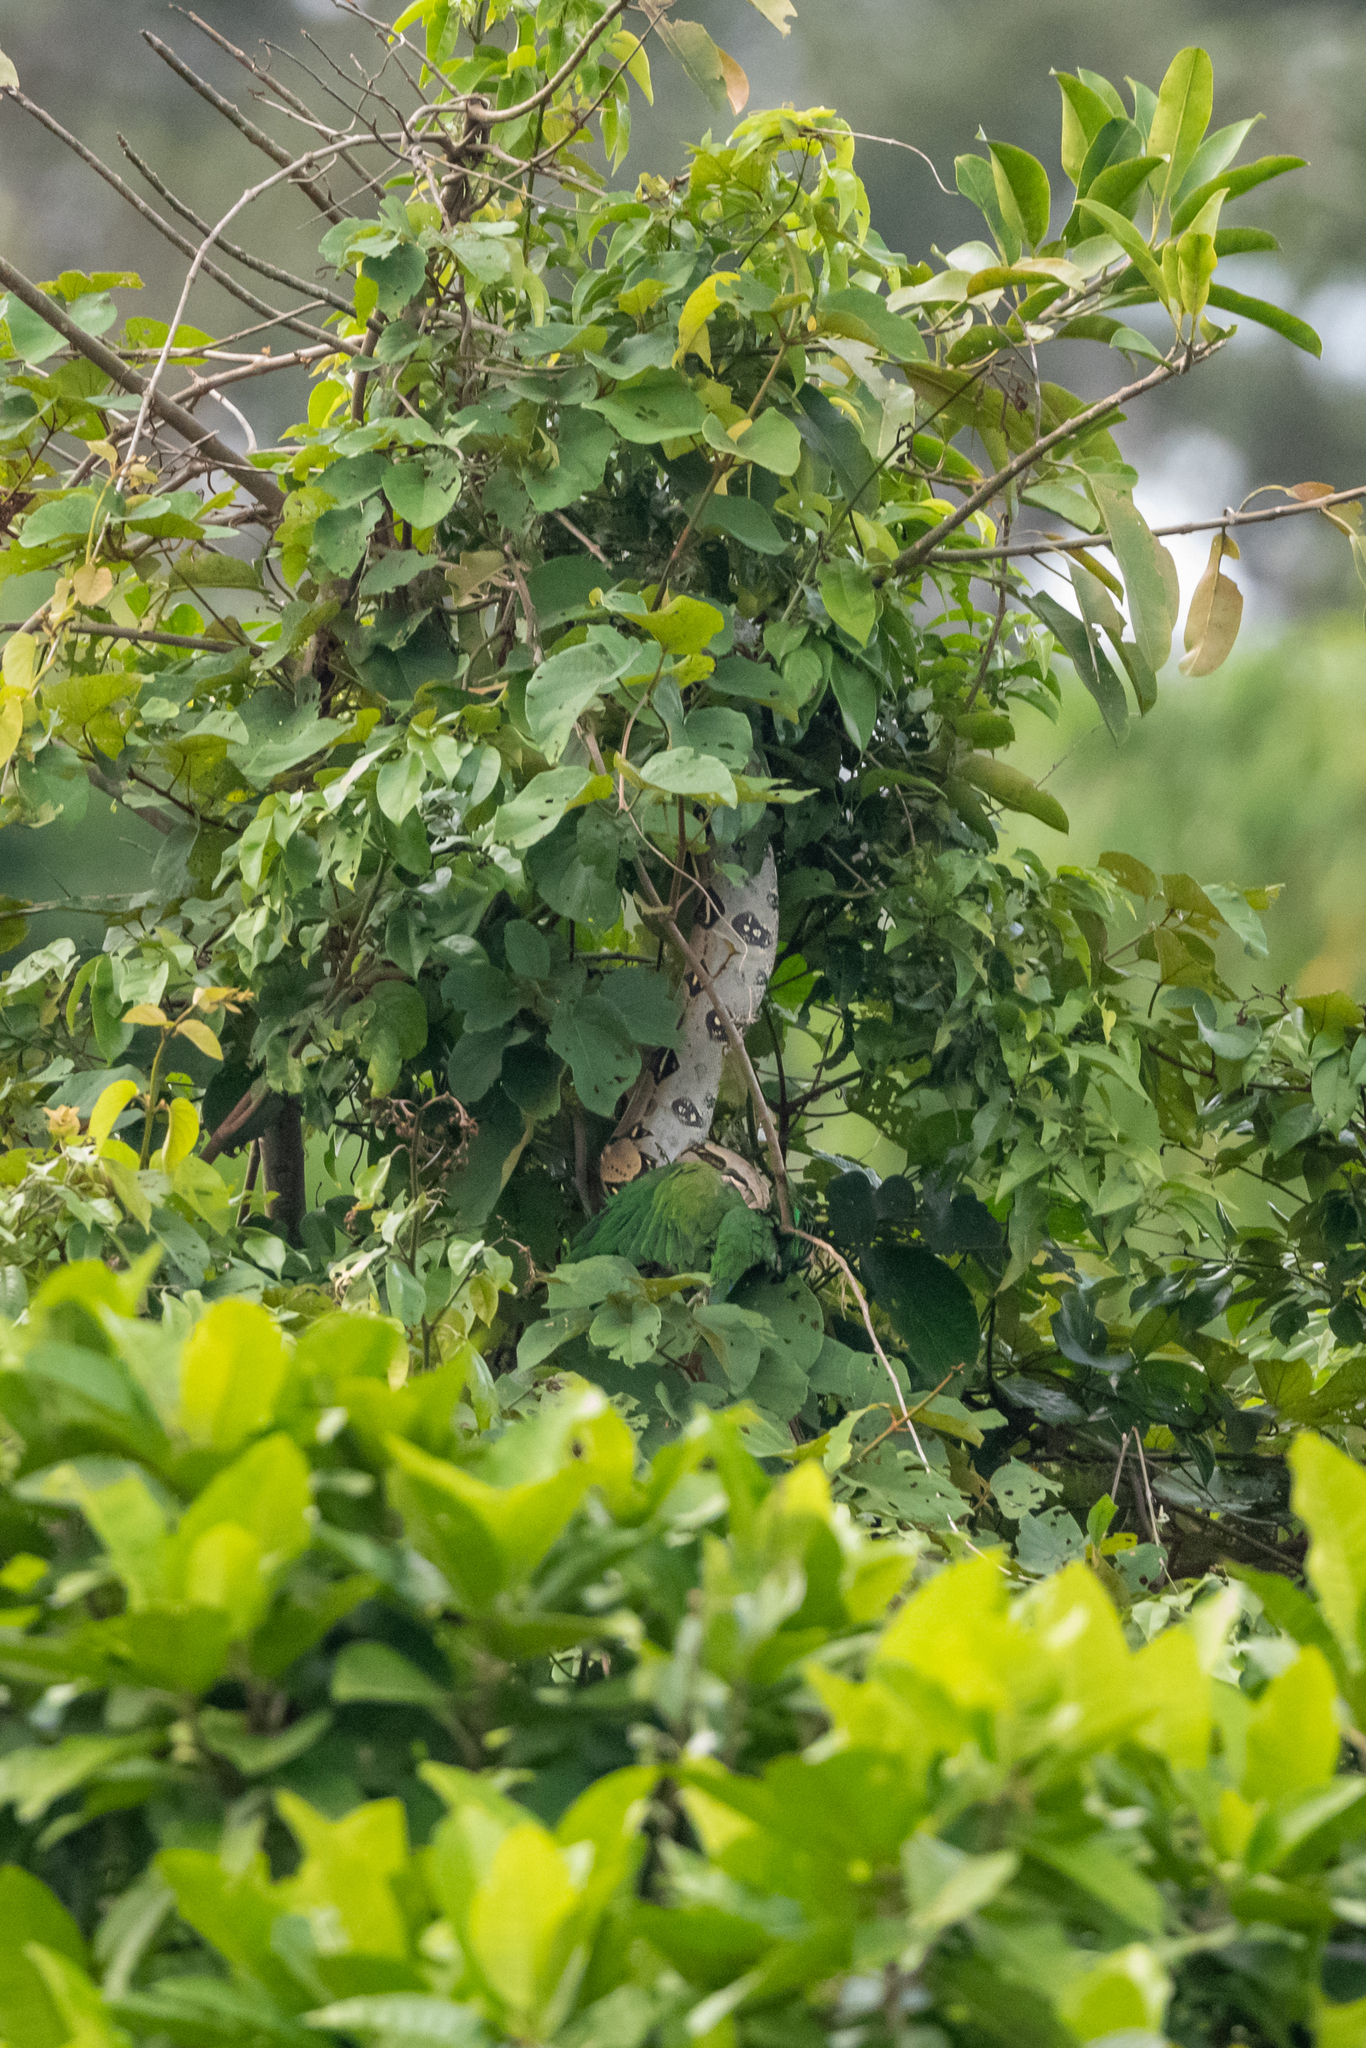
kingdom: Animalia
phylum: Chordata
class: Aves
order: Psittaciformes
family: Psittacidae
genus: Pionus
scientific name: Pionus menstruus
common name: Blue-headed parrot
